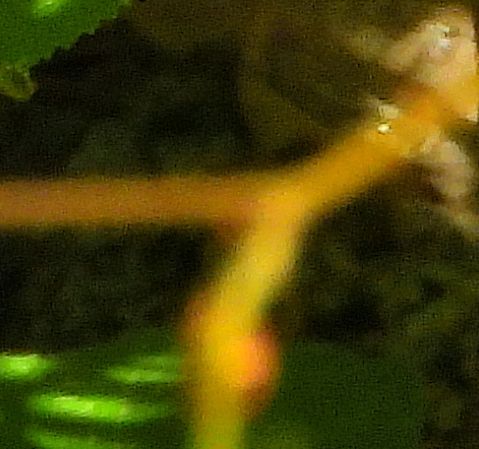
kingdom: Animalia
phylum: Chordata
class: Aves
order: Passeriformes
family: Tyrannidae
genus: Contopus
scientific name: Contopus virens
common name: Eastern wood-pewee
